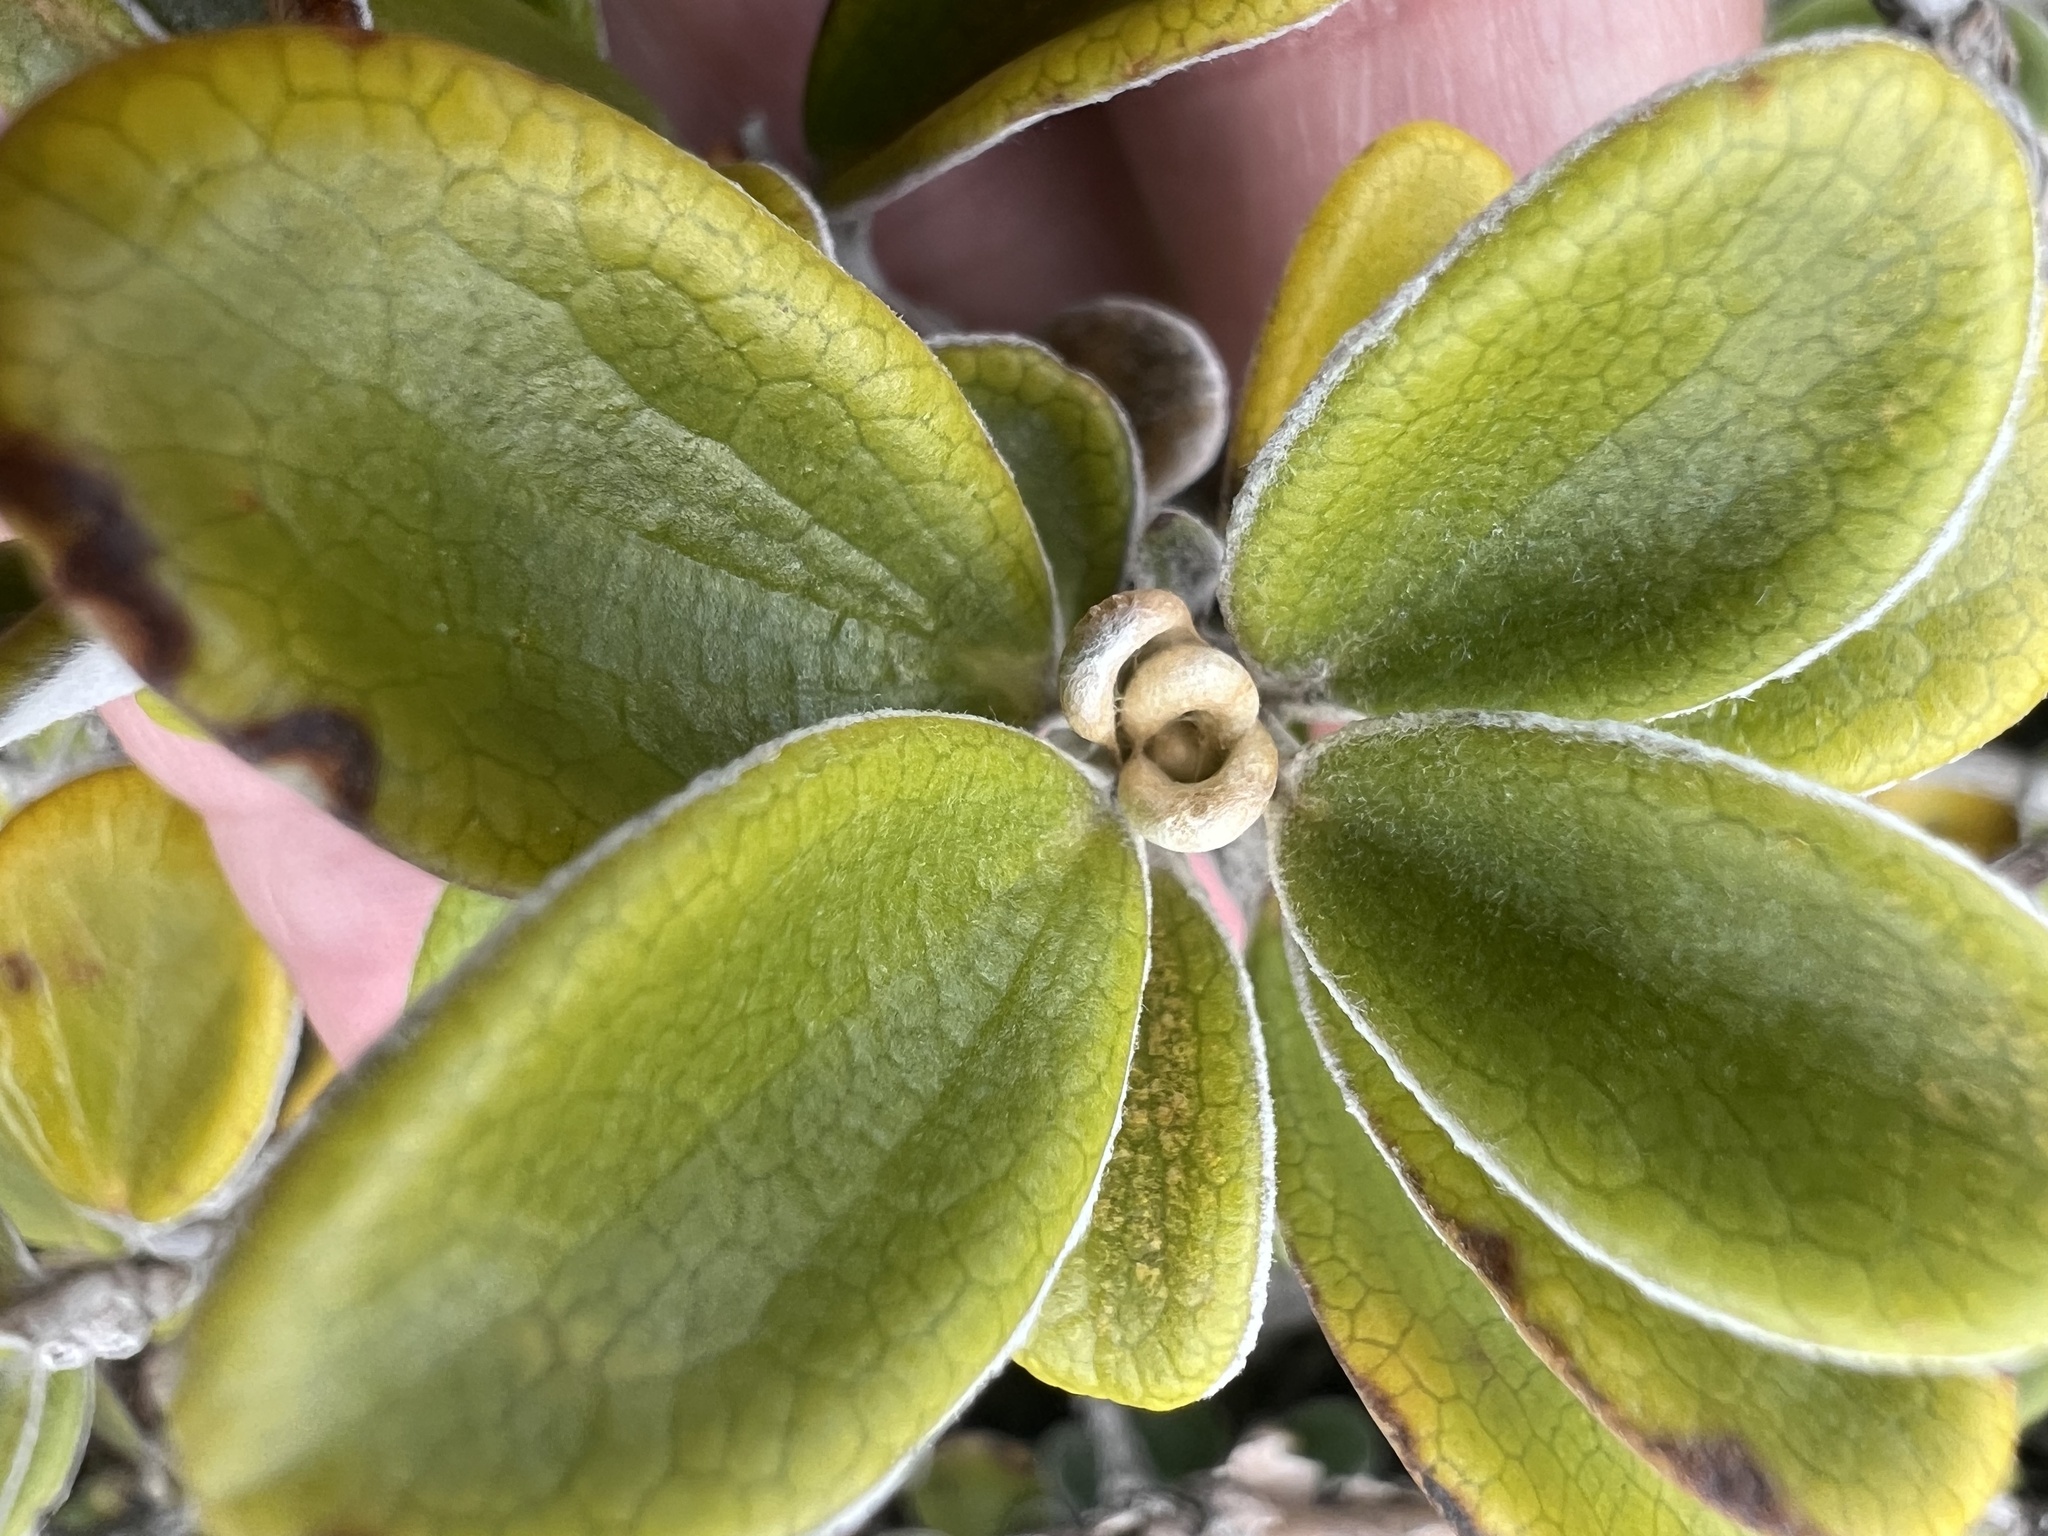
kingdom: Plantae
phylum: Tracheophyta
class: Magnoliopsida
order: Asterales
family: Asteraceae
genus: Brachyglottis
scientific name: Brachyglottis bidwillii
